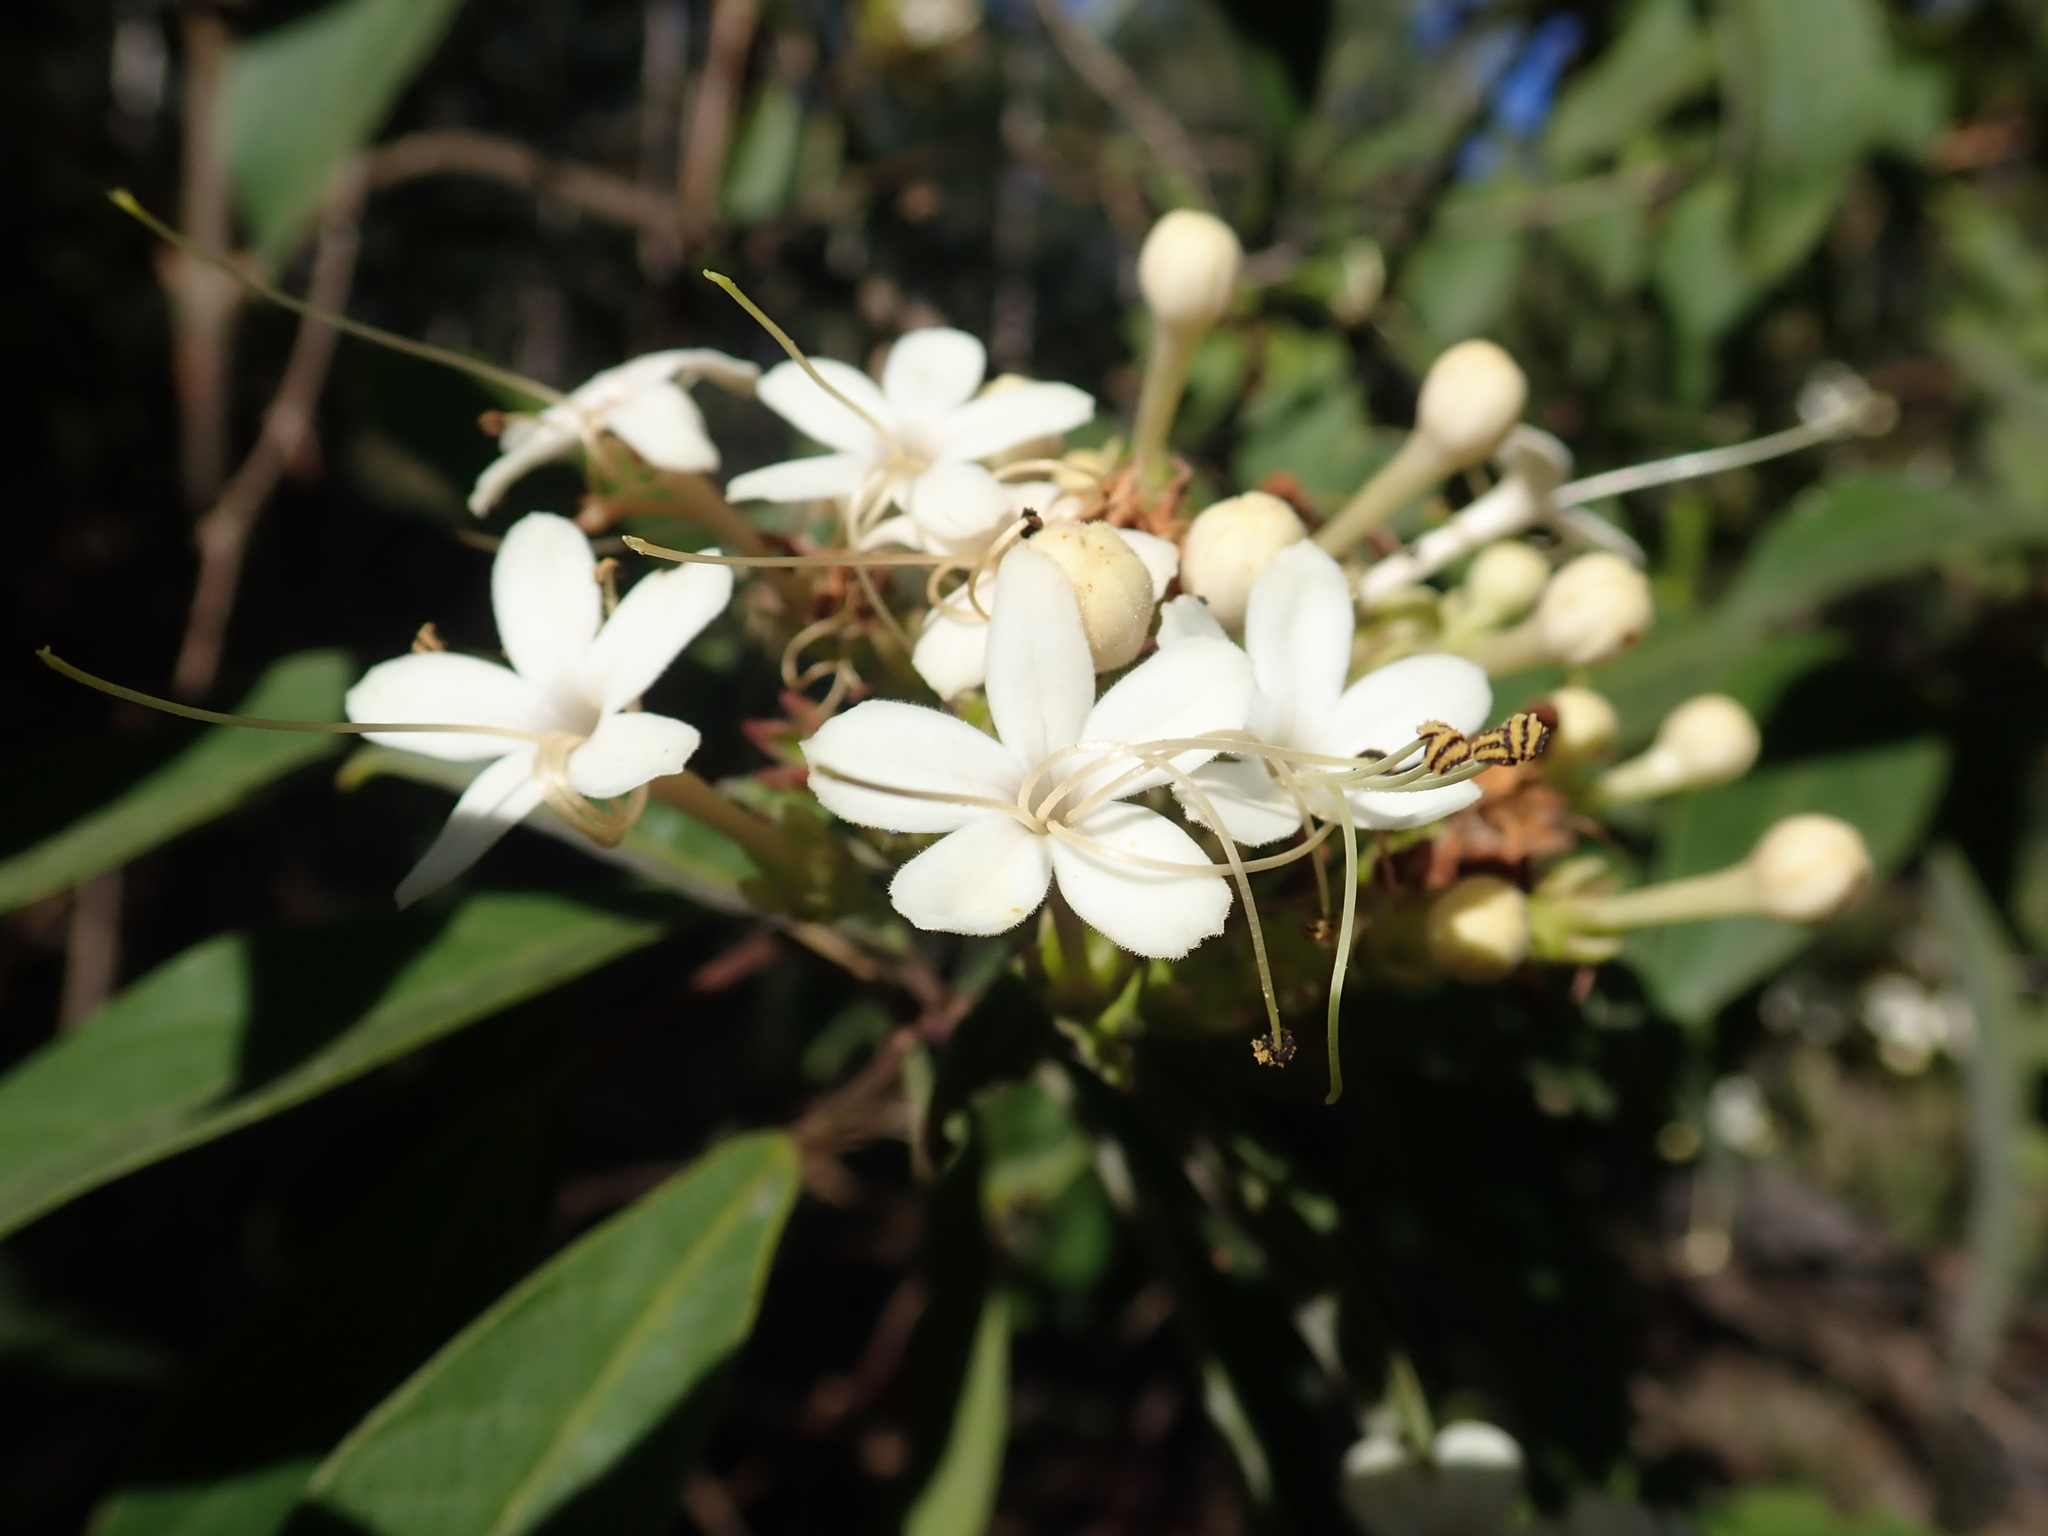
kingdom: Plantae
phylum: Tracheophyta
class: Magnoliopsida
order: Lamiales
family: Lamiaceae
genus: Clerodendrum
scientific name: Clerodendrum tomentosum
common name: Hairy clerodendrum
